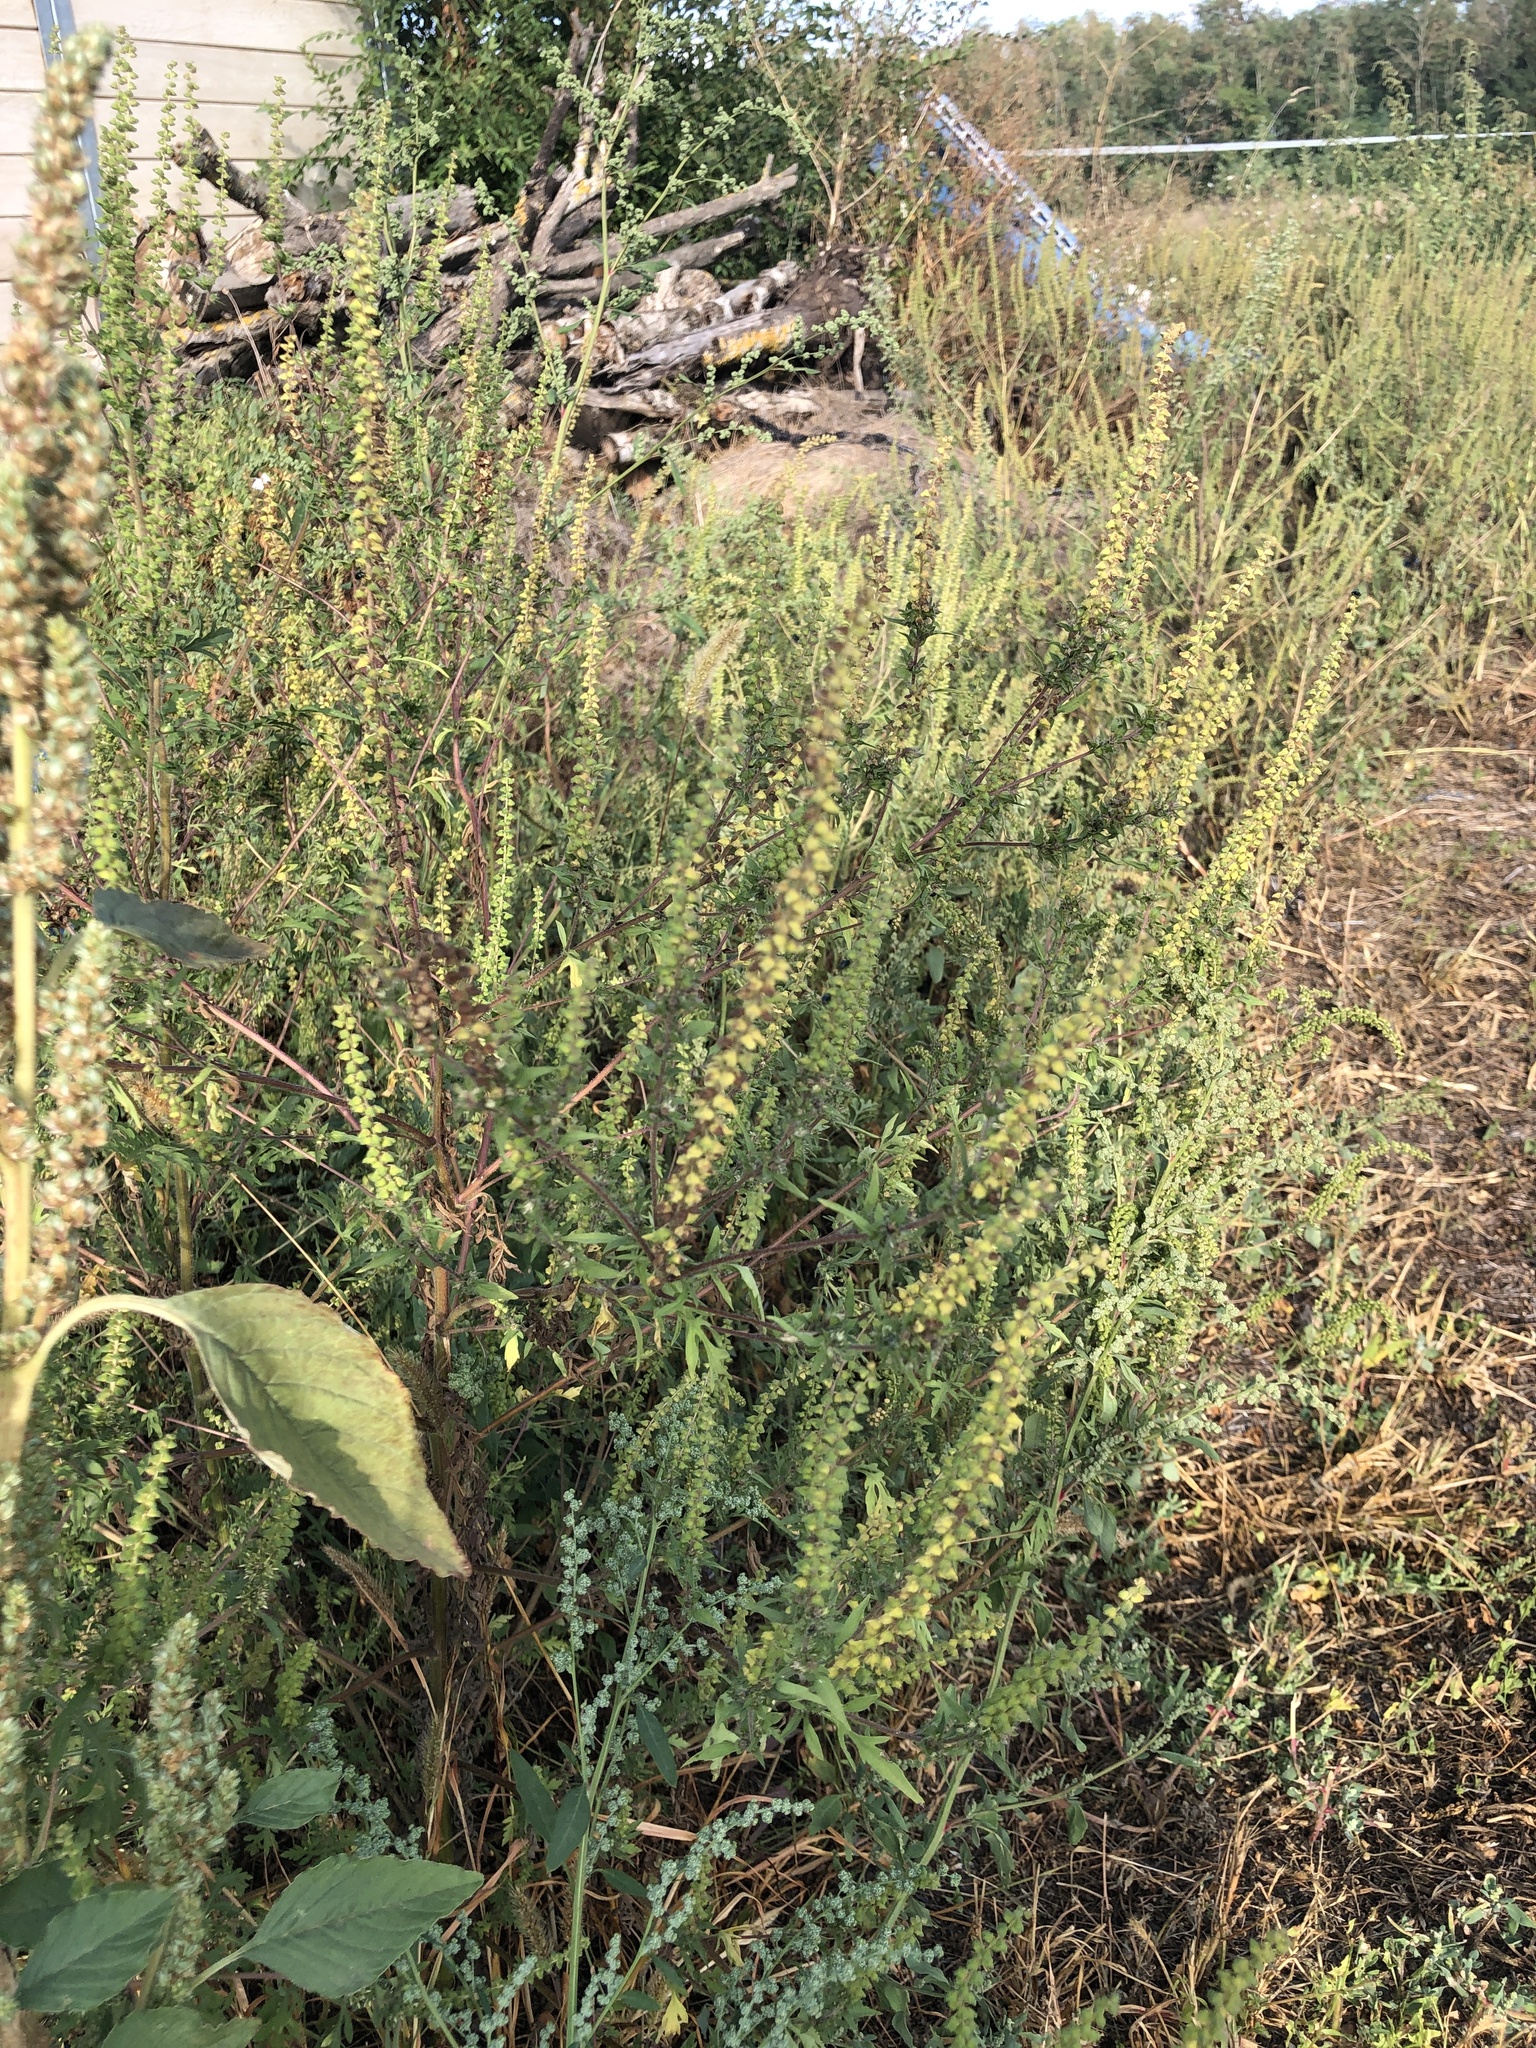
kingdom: Plantae
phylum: Tracheophyta
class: Magnoliopsida
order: Asterales
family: Asteraceae
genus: Ambrosia
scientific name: Ambrosia artemisiifolia
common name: Annual ragweed
